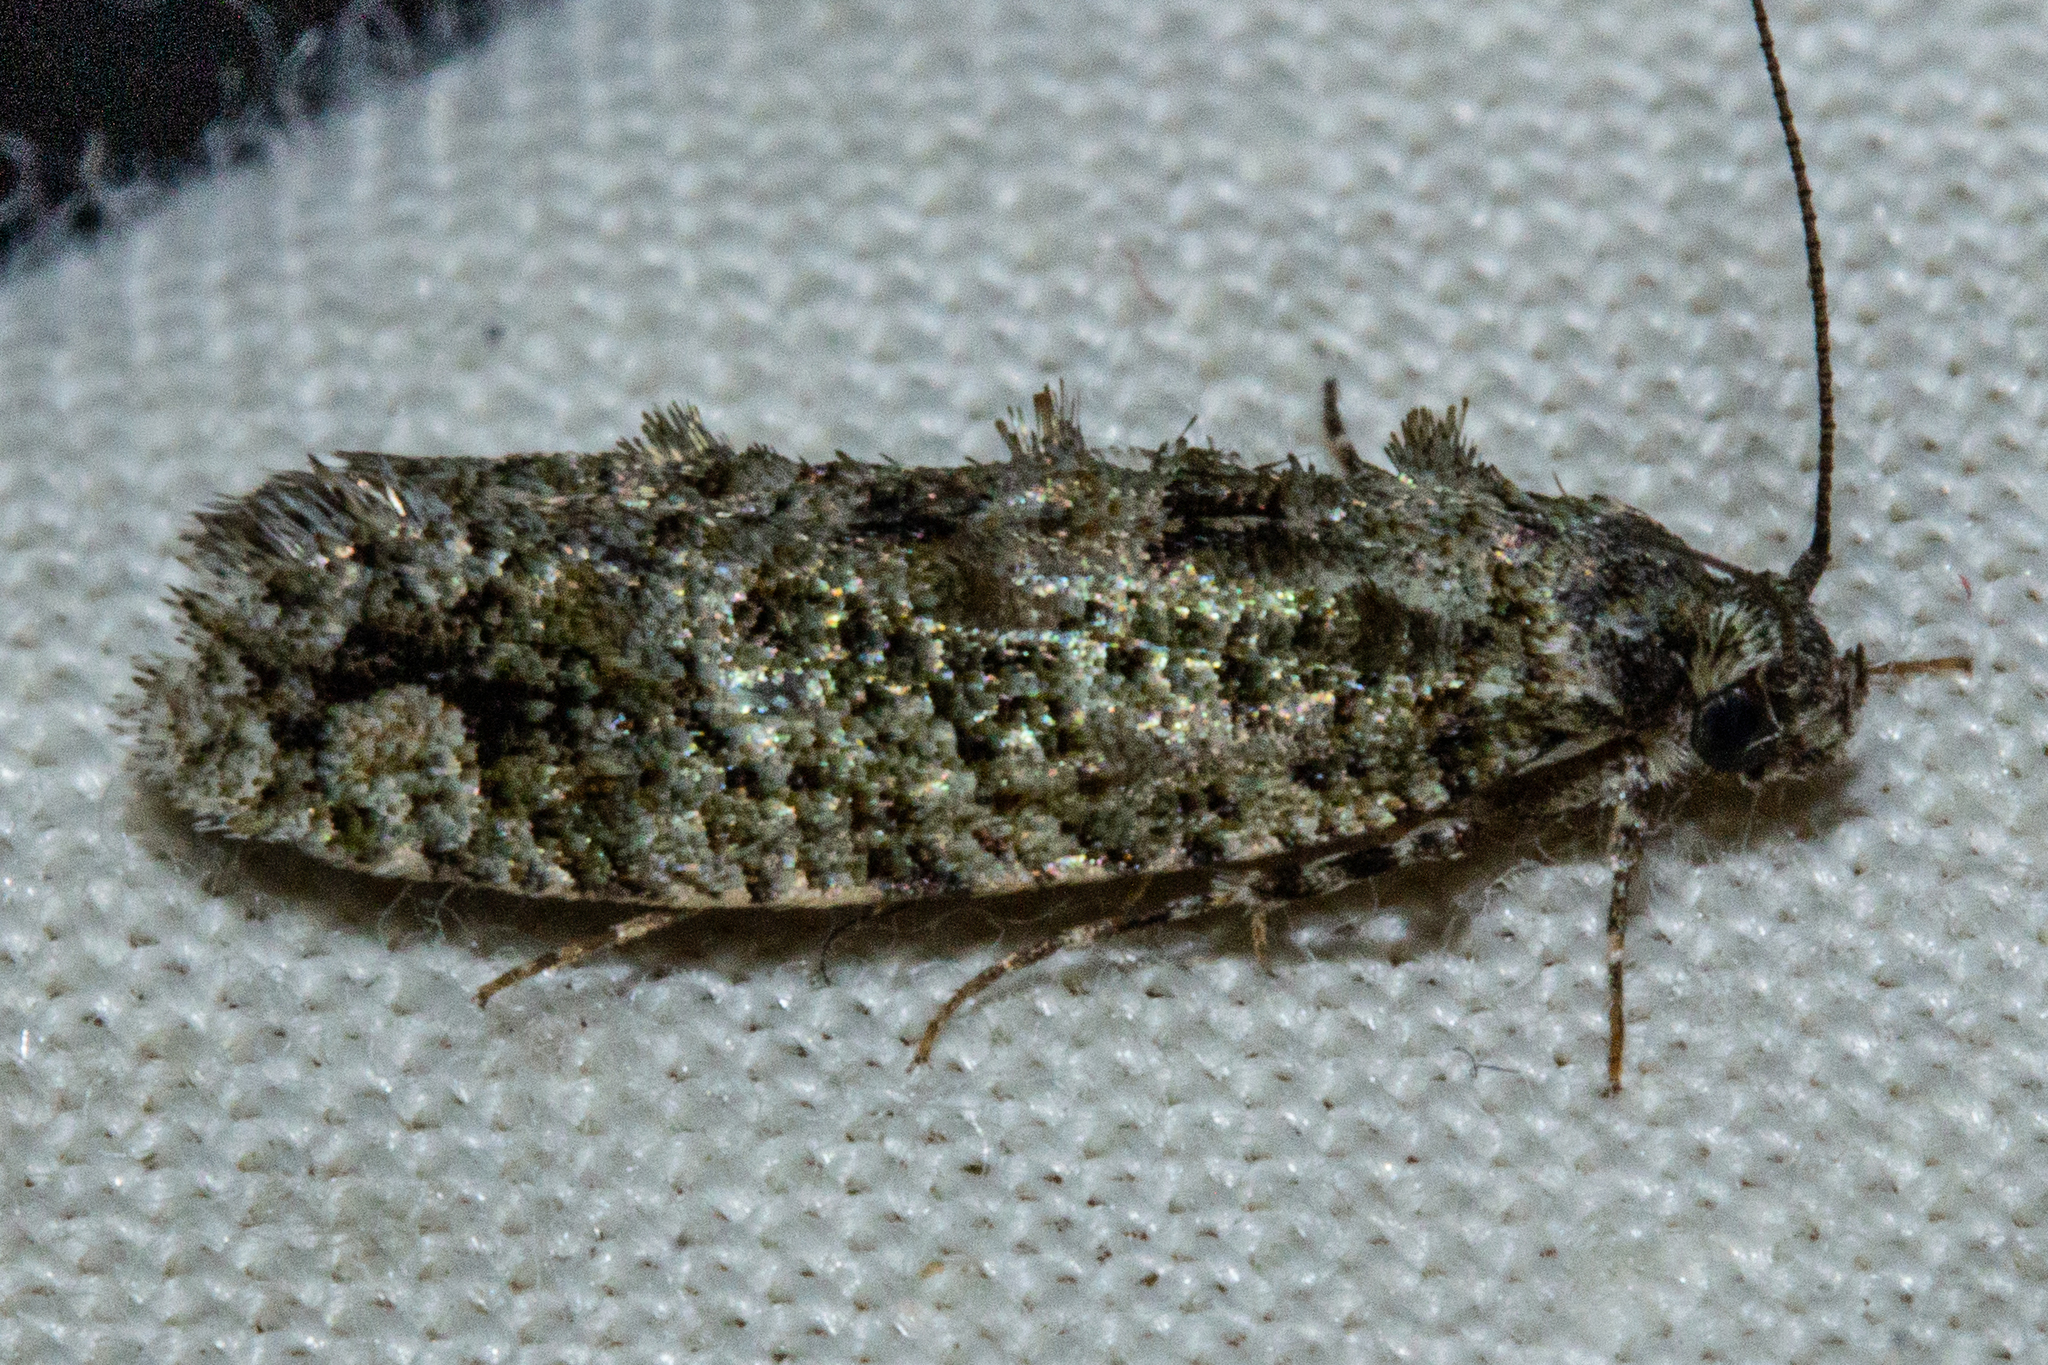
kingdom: Animalia
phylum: Arthropoda
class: Insecta
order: Lepidoptera
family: Tineidae
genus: Lysiphragma
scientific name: Lysiphragma howesii
